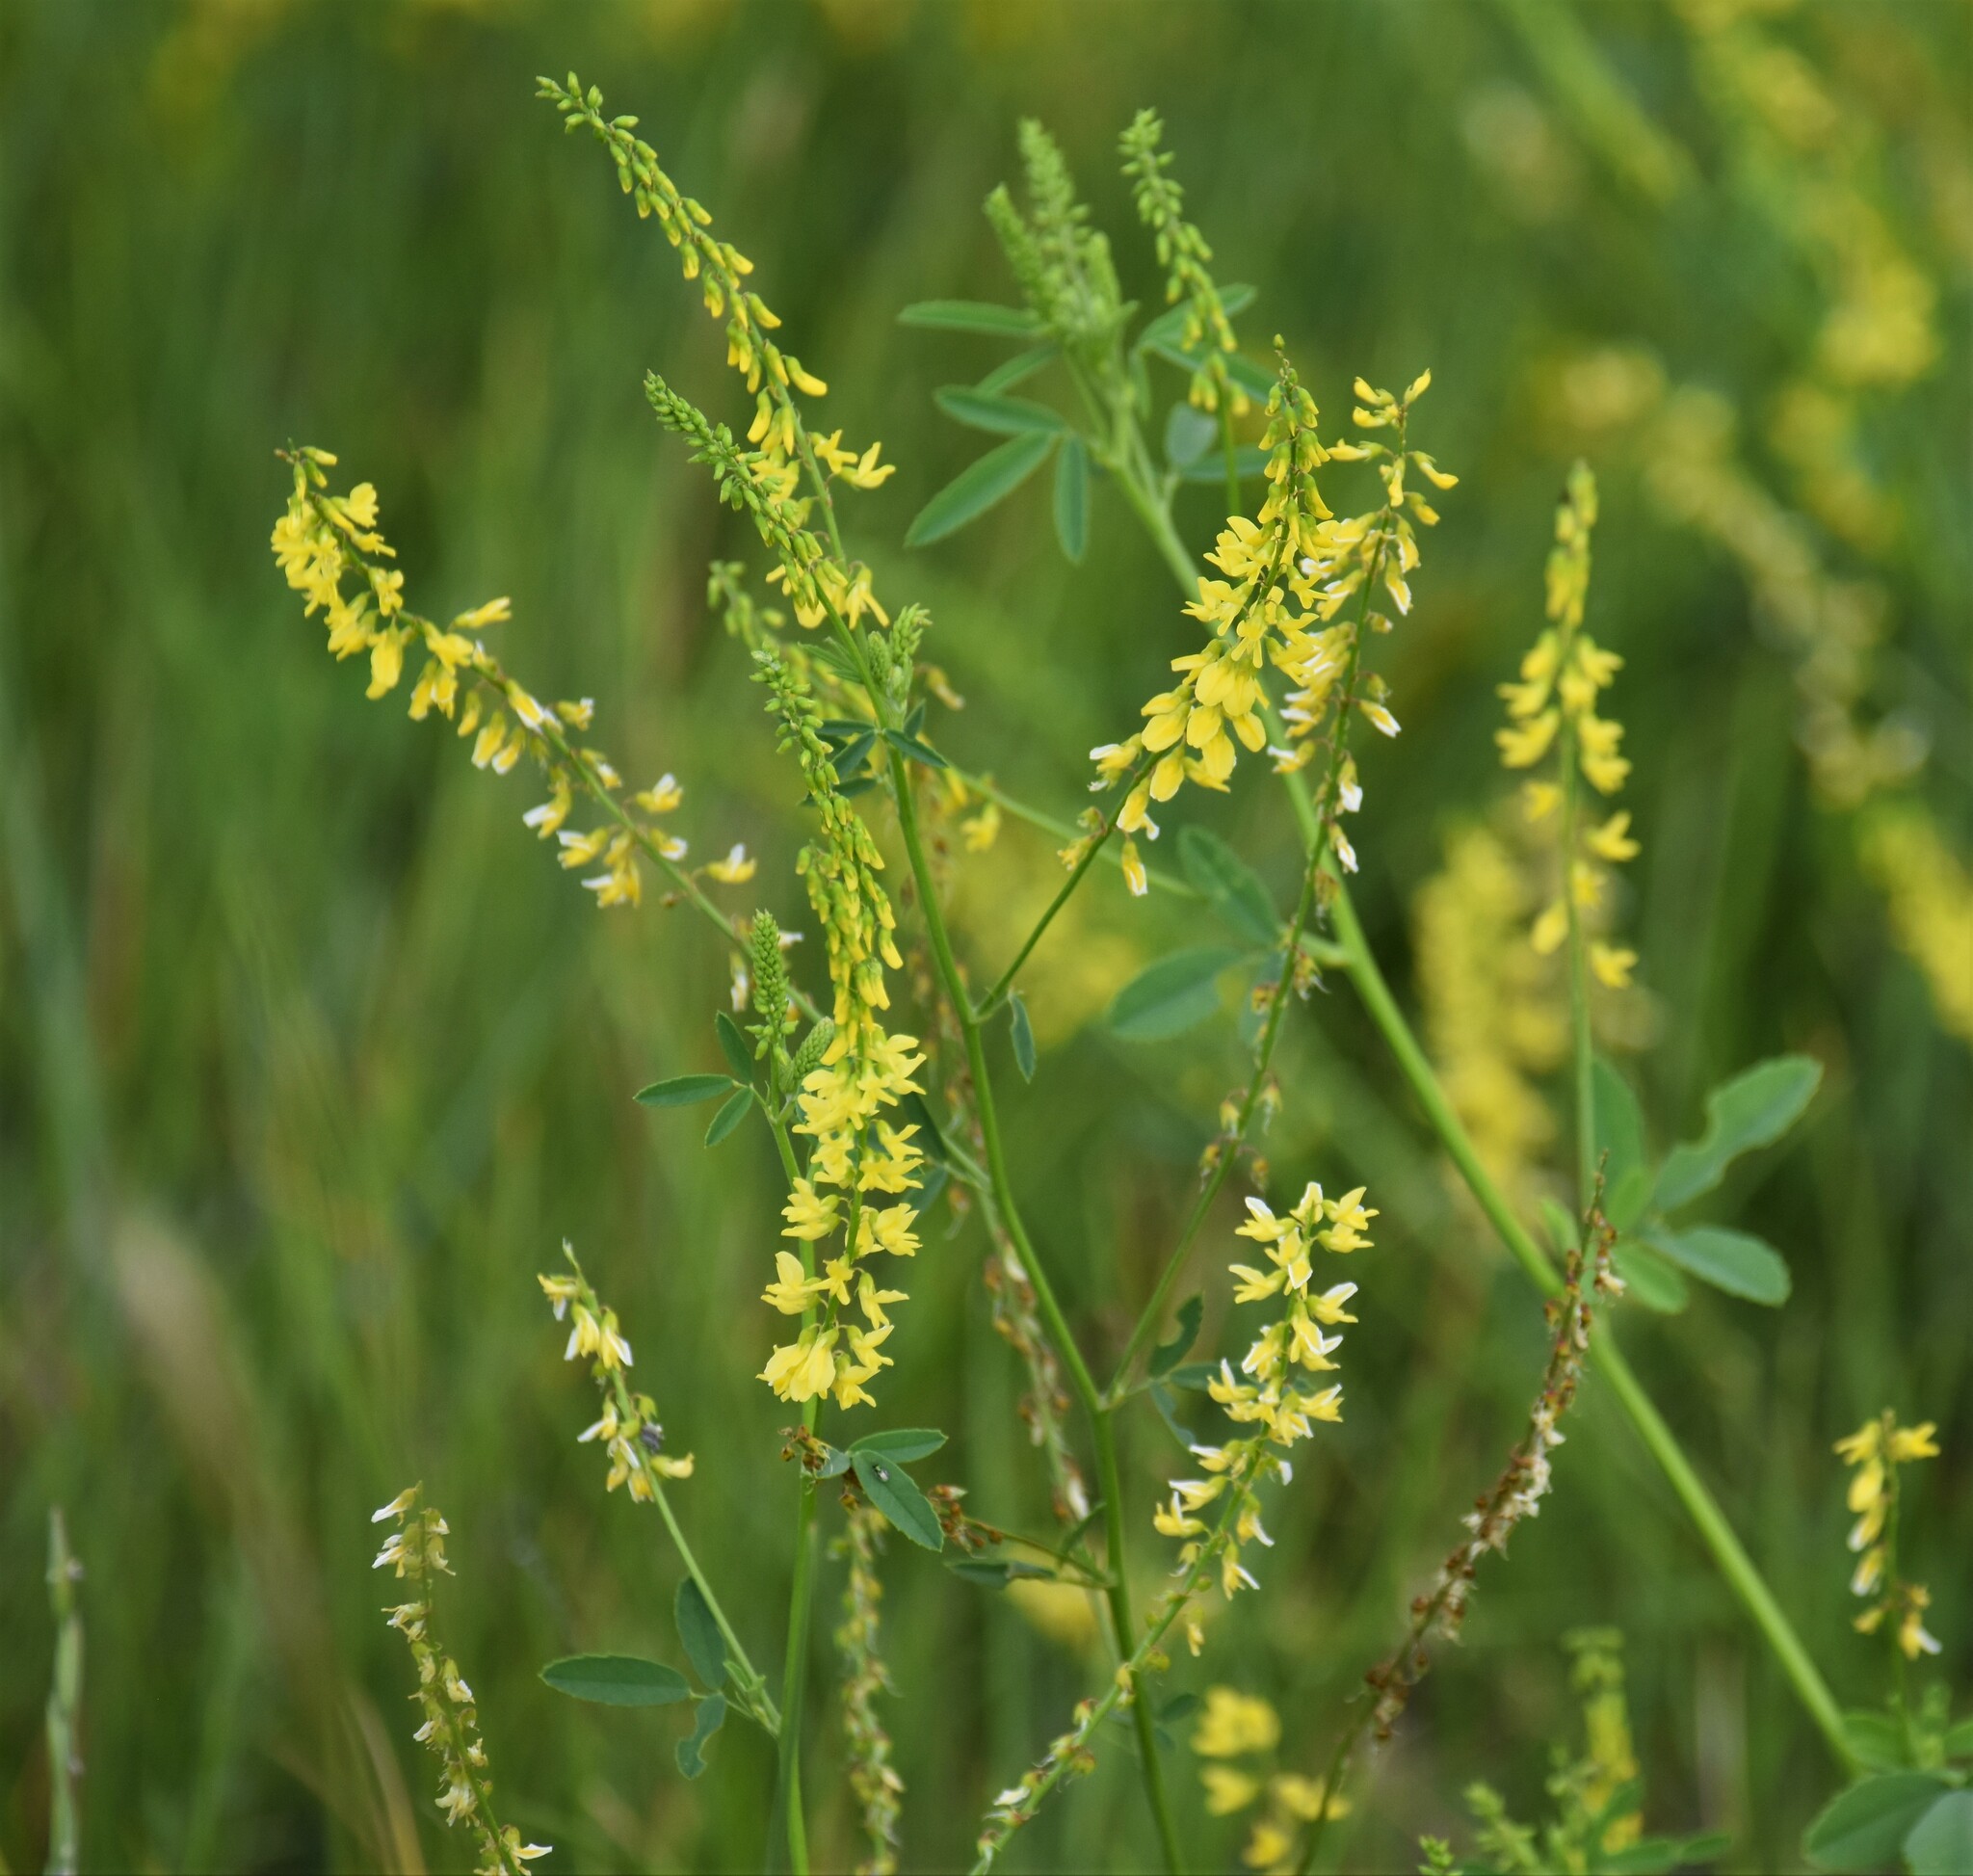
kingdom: Plantae
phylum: Tracheophyta
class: Magnoliopsida
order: Fabales
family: Fabaceae
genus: Melilotus
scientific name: Melilotus officinalis
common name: Sweetclover
